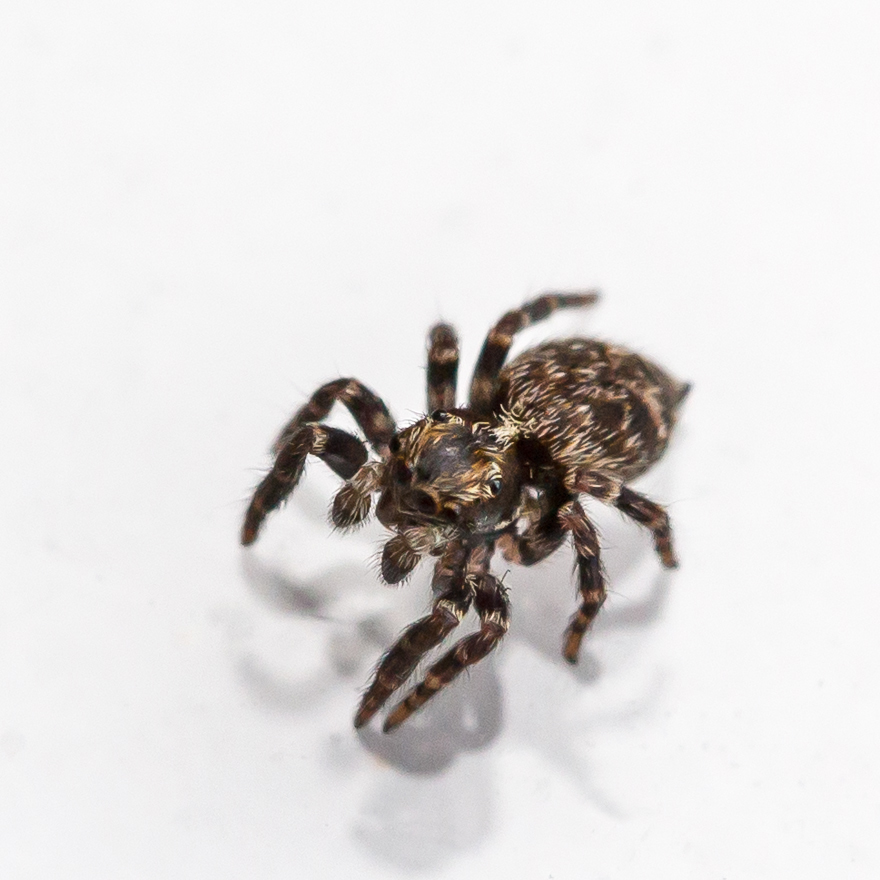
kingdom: Animalia
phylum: Arthropoda
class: Arachnida
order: Araneae
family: Salticidae
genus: Naphrys
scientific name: Naphrys pulex
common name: Flea jumping spider
